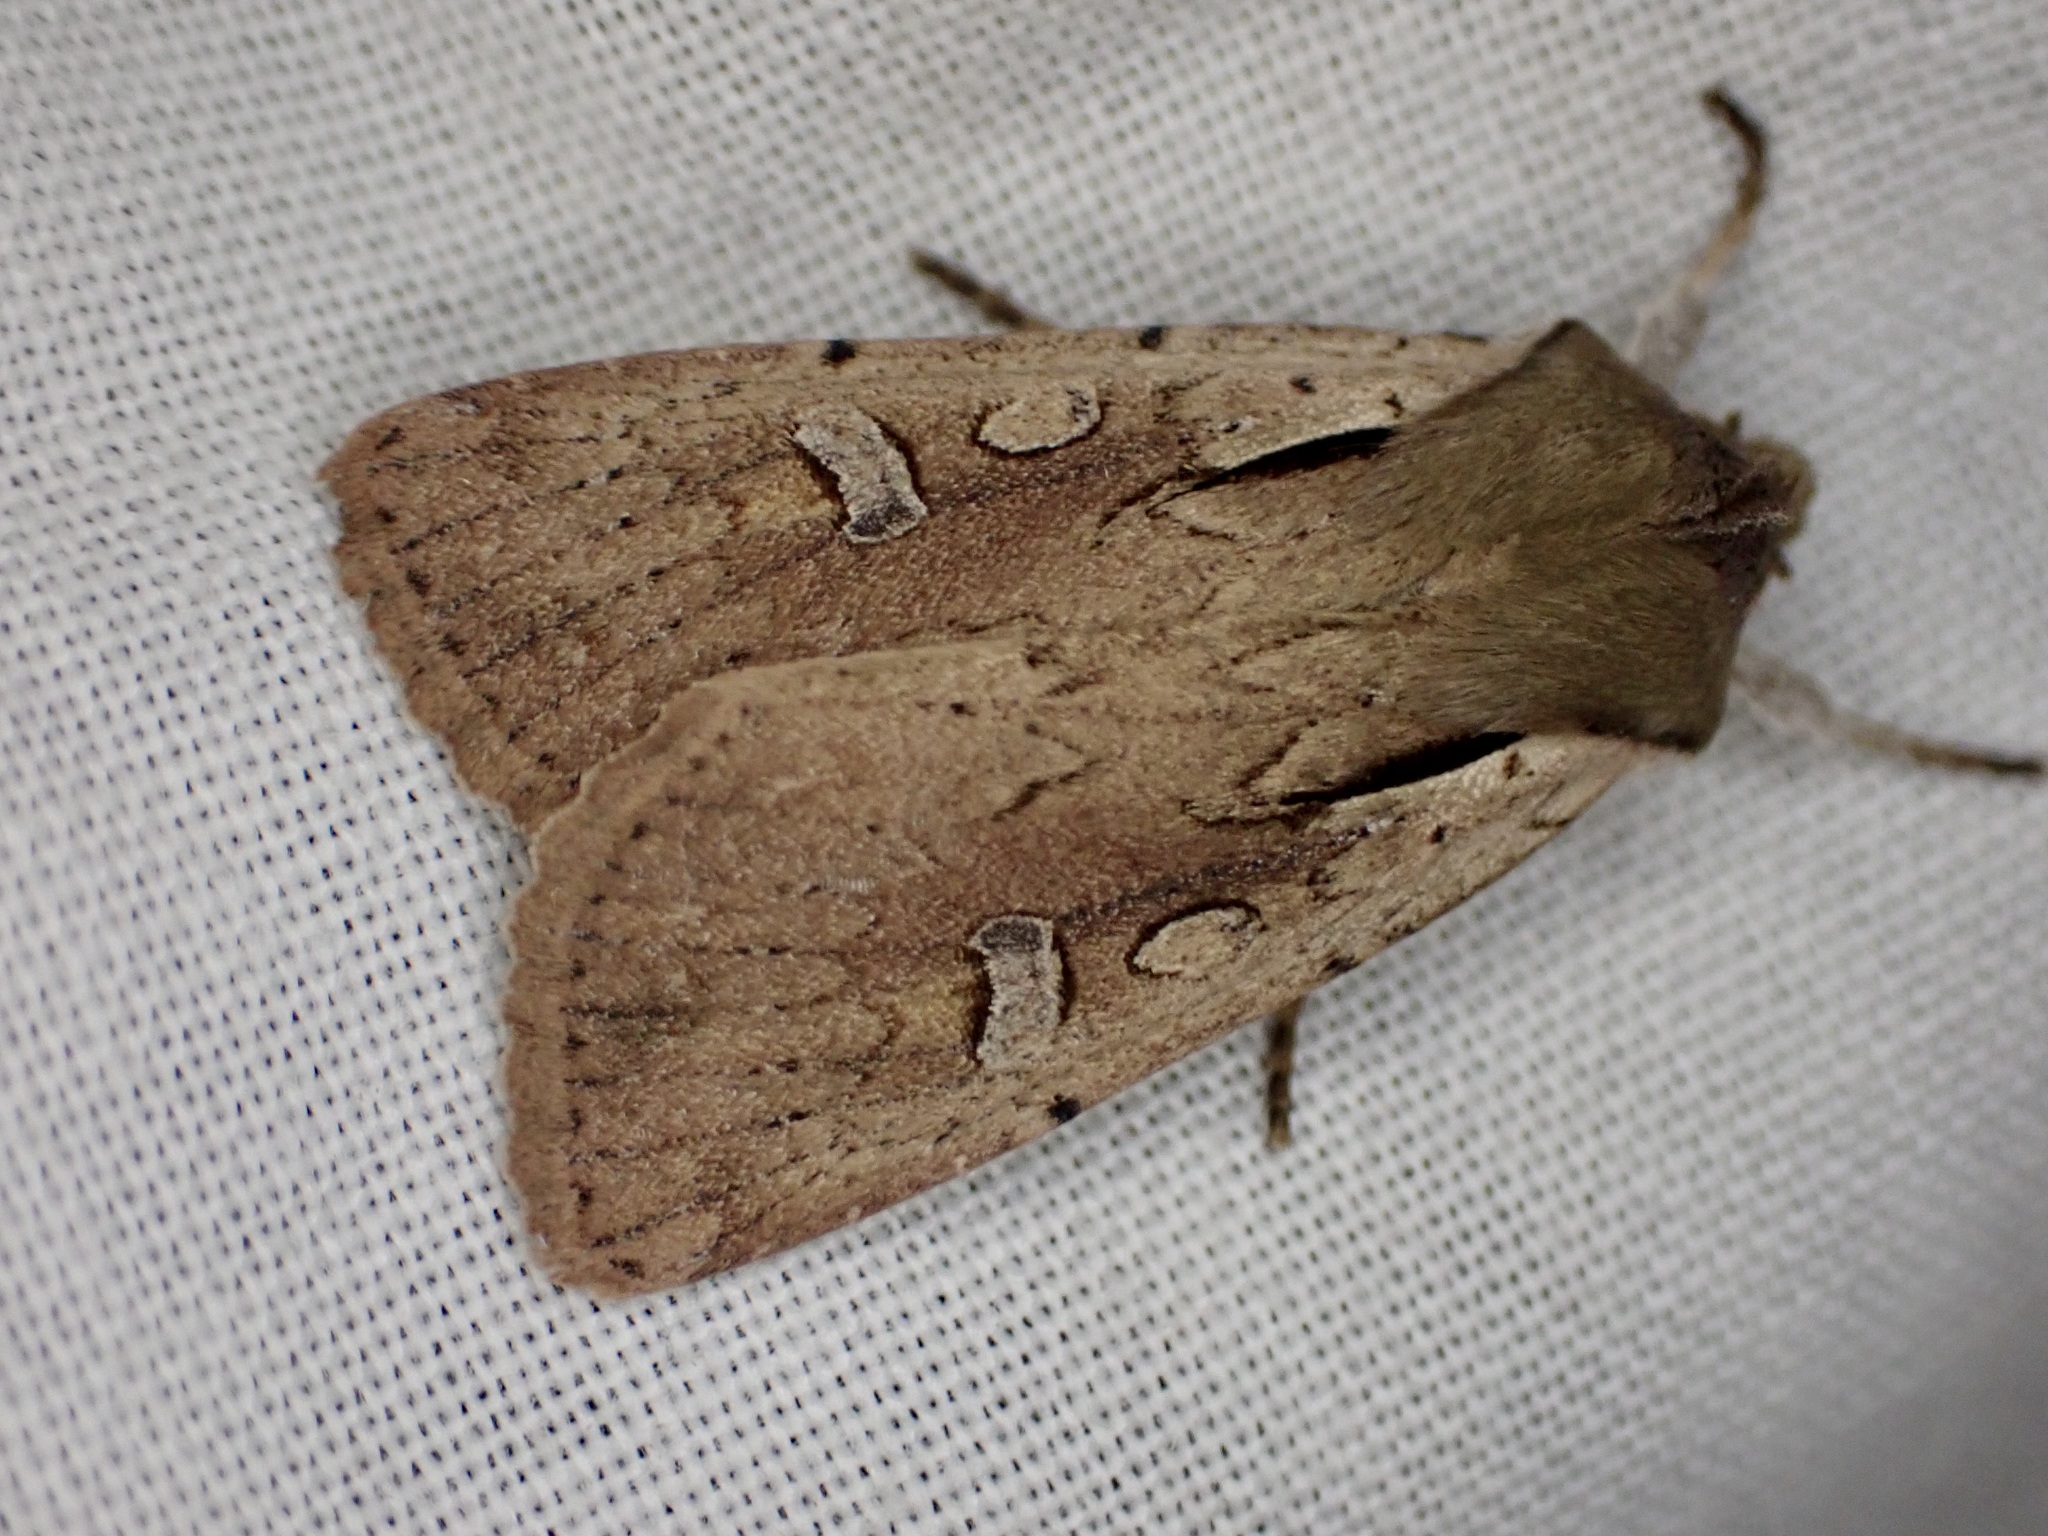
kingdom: Animalia
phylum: Arthropoda
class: Insecta
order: Lepidoptera
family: Noctuidae
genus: Ichneutica
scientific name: Ichneutica atristriga
